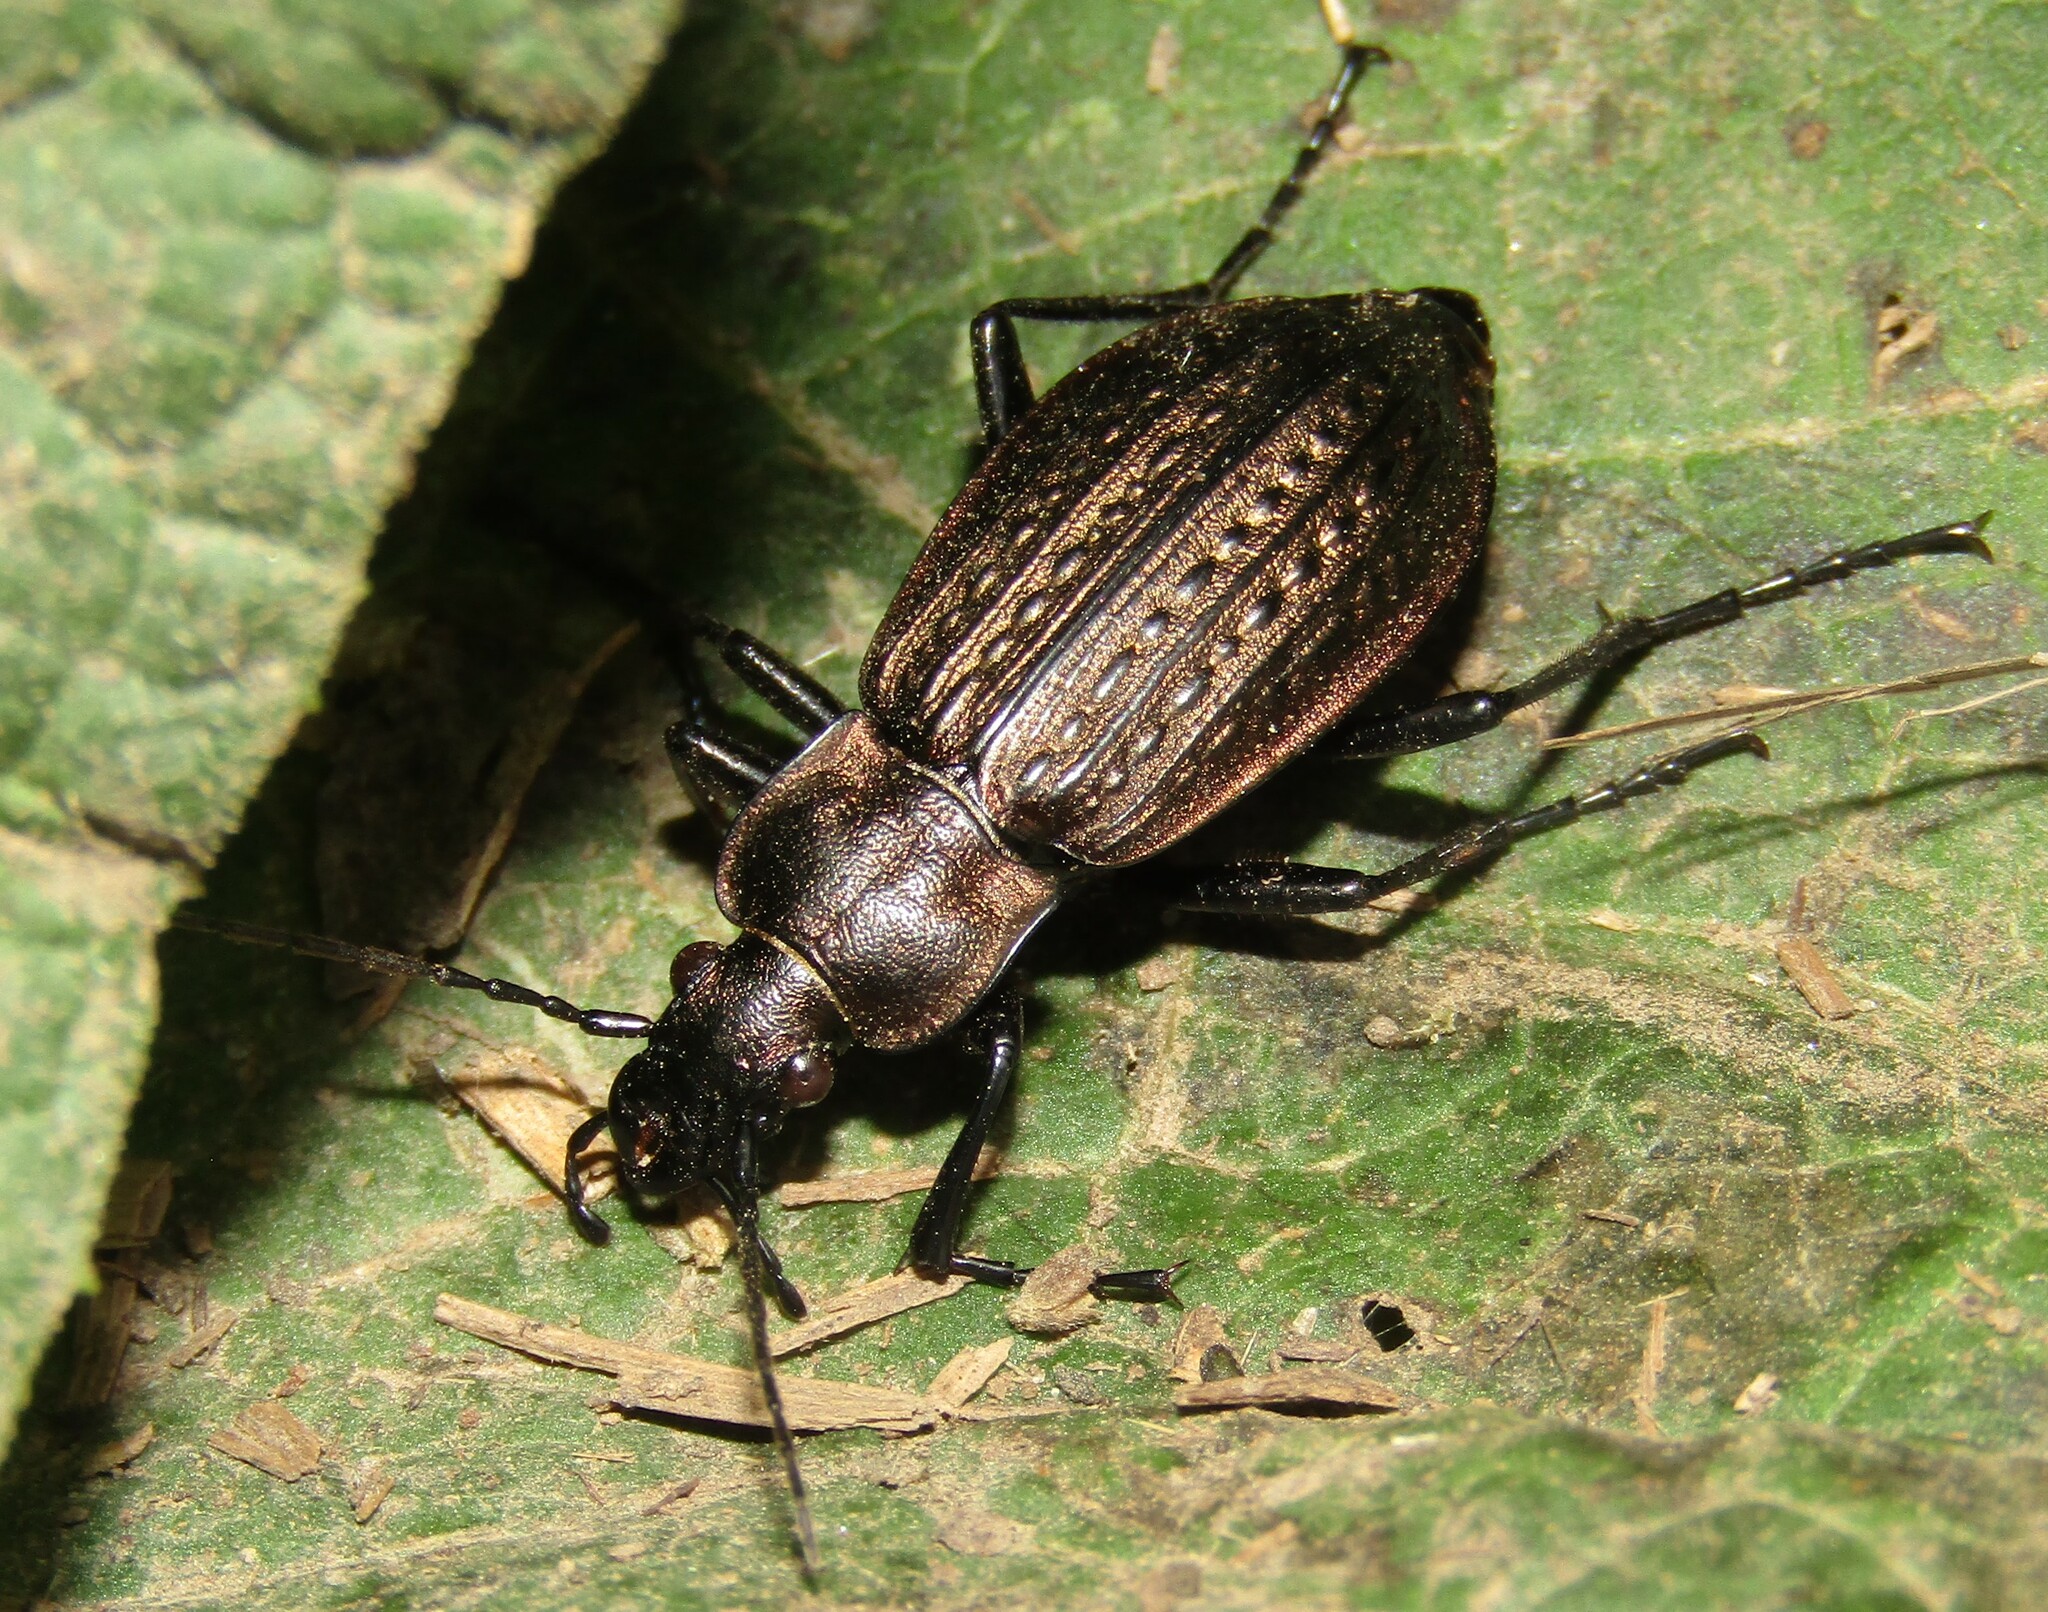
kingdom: Animalia
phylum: Arthropoda
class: Insecta
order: Coleoptera
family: Carabidae
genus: Carabus
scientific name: Carabus granulatus
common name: Granulate ground beetle
